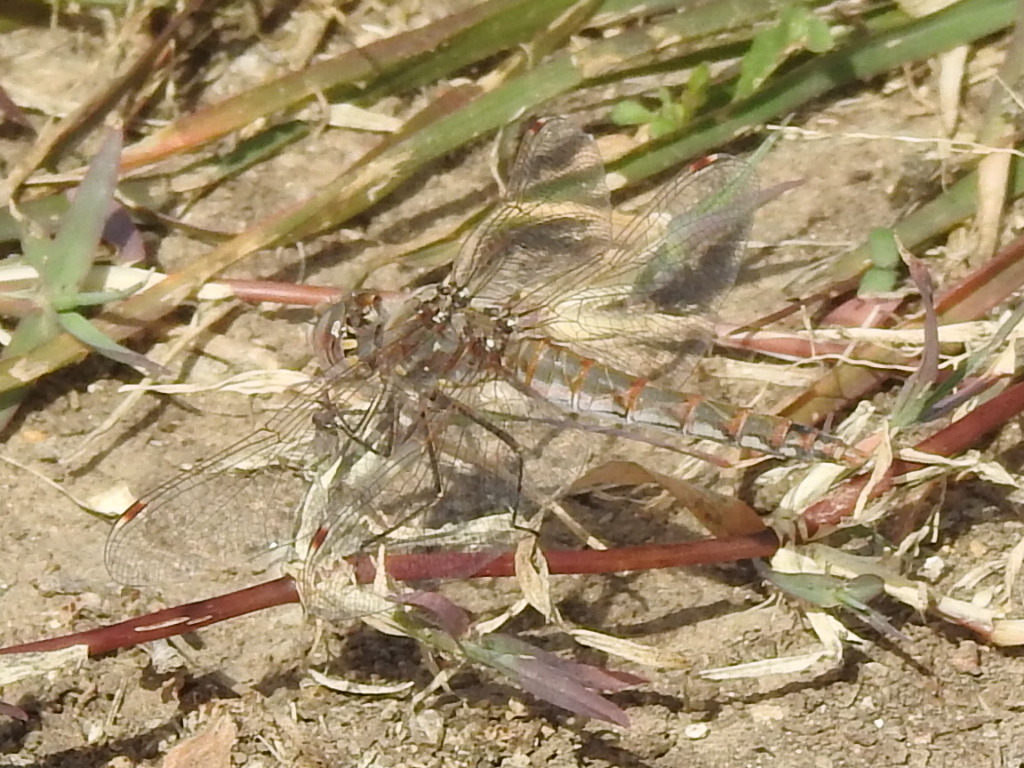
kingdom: Animalia
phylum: Arthropoda
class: Insecta
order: Odonata
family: Libellulidae
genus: Sympetrum
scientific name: Sympetrum corruptum
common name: Variegated meadowhawk
